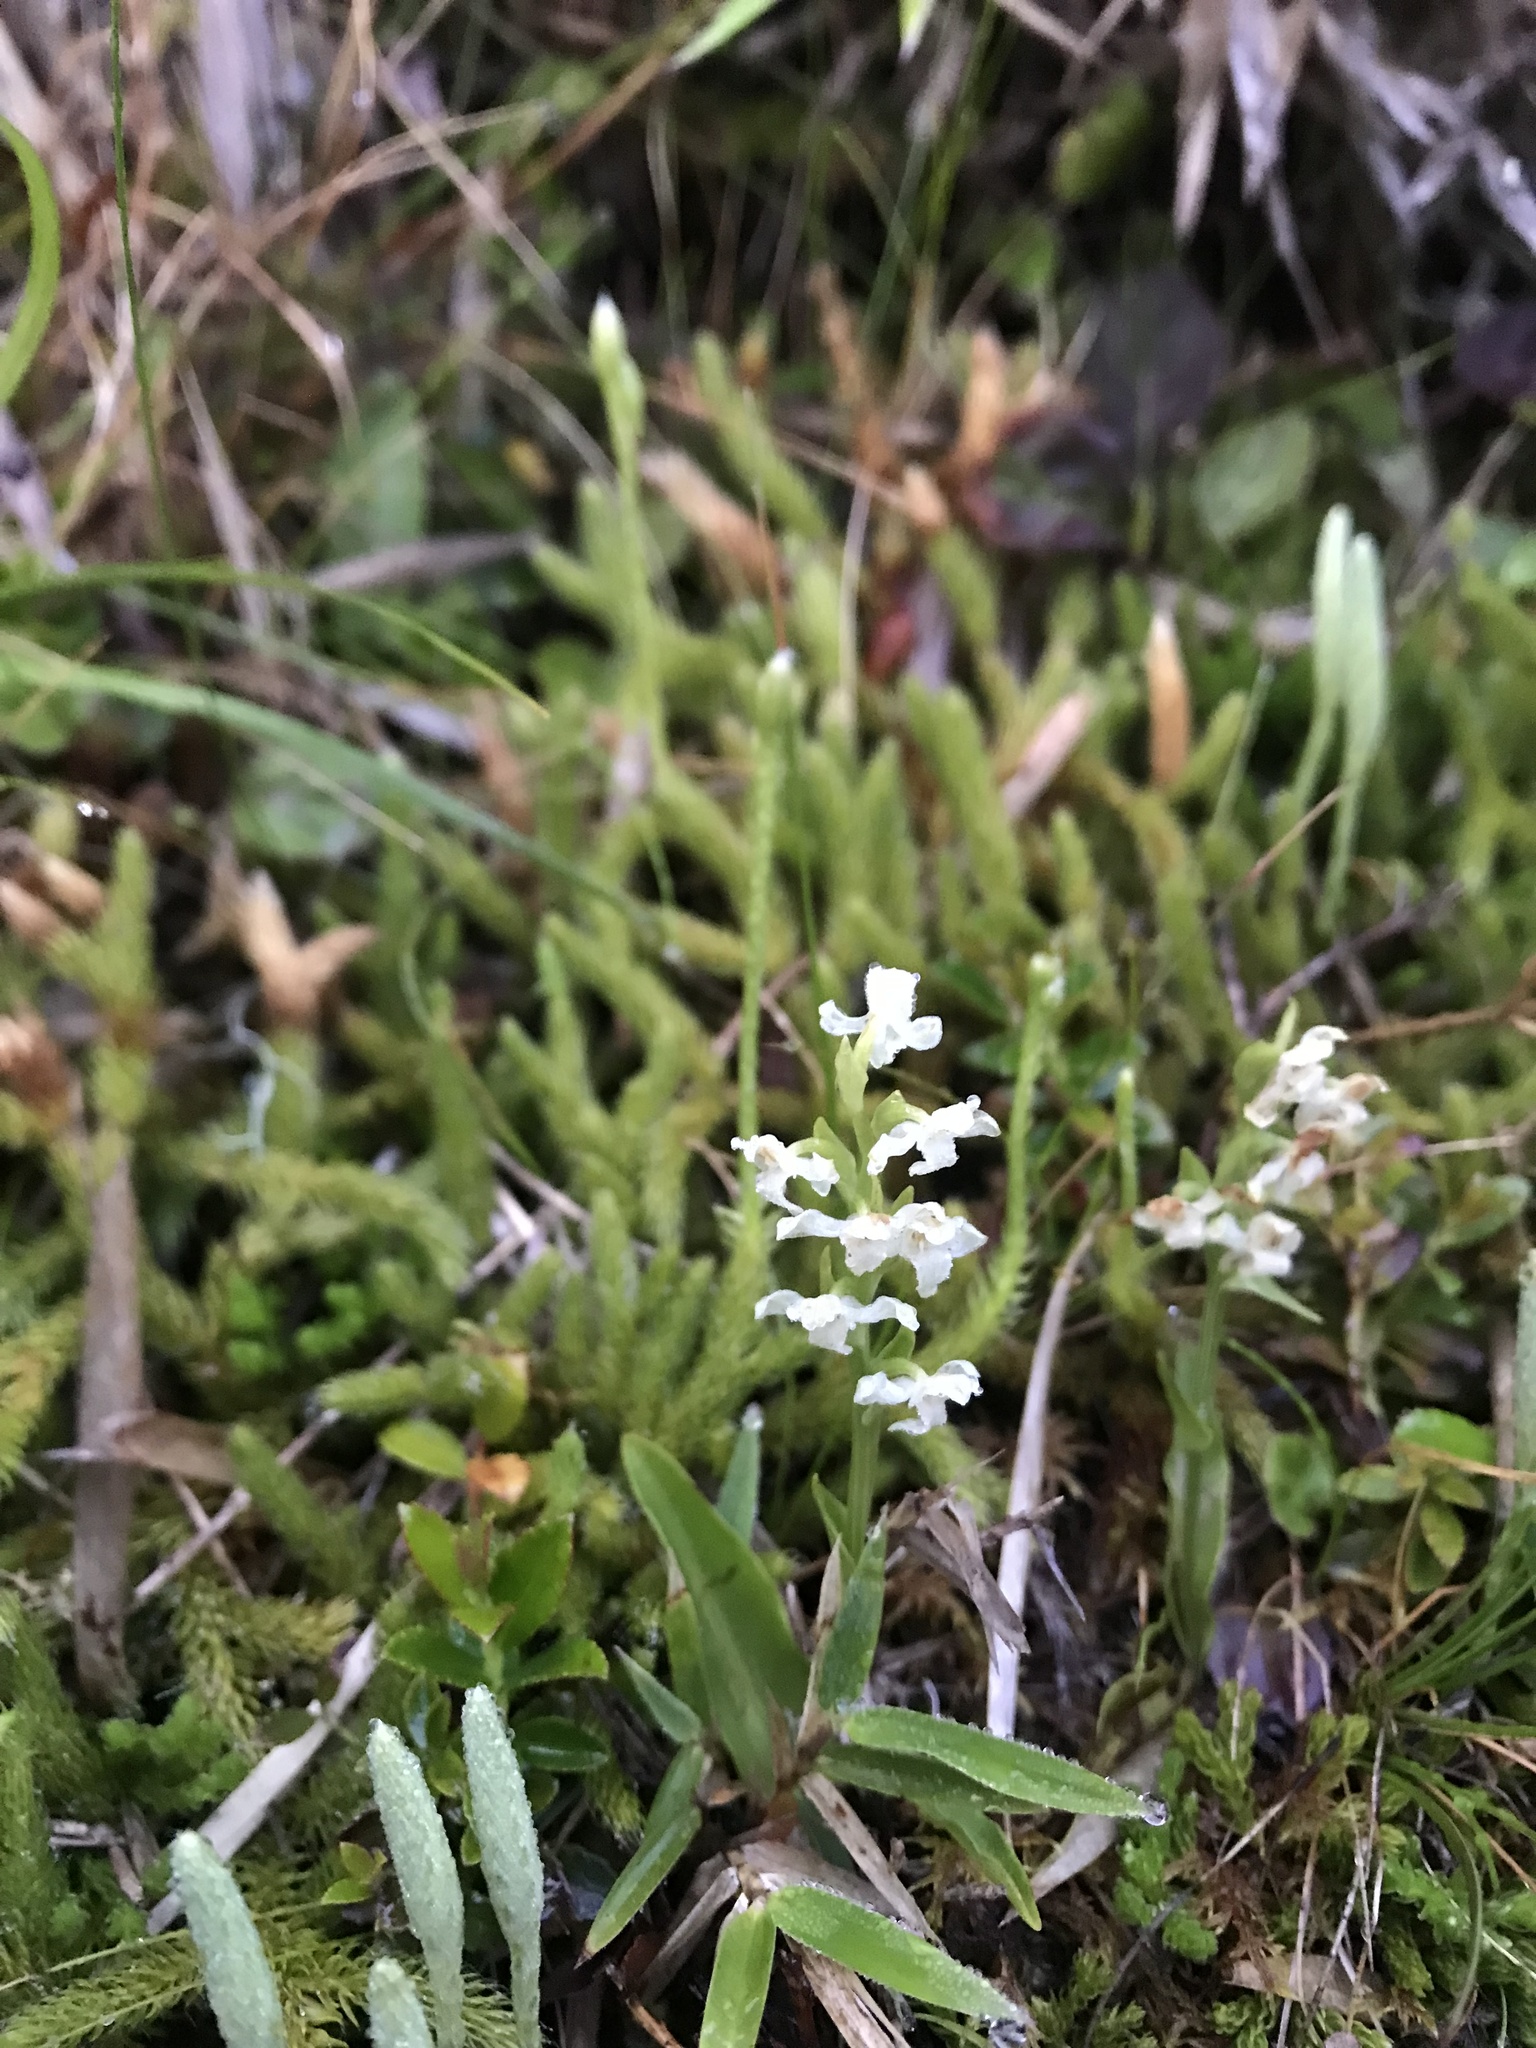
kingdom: Plantae
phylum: Tracheophyta
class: Liliopsida
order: Asparagales
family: Orchidaceae
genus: Platanthera
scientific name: Platanthera brevicalcarata
